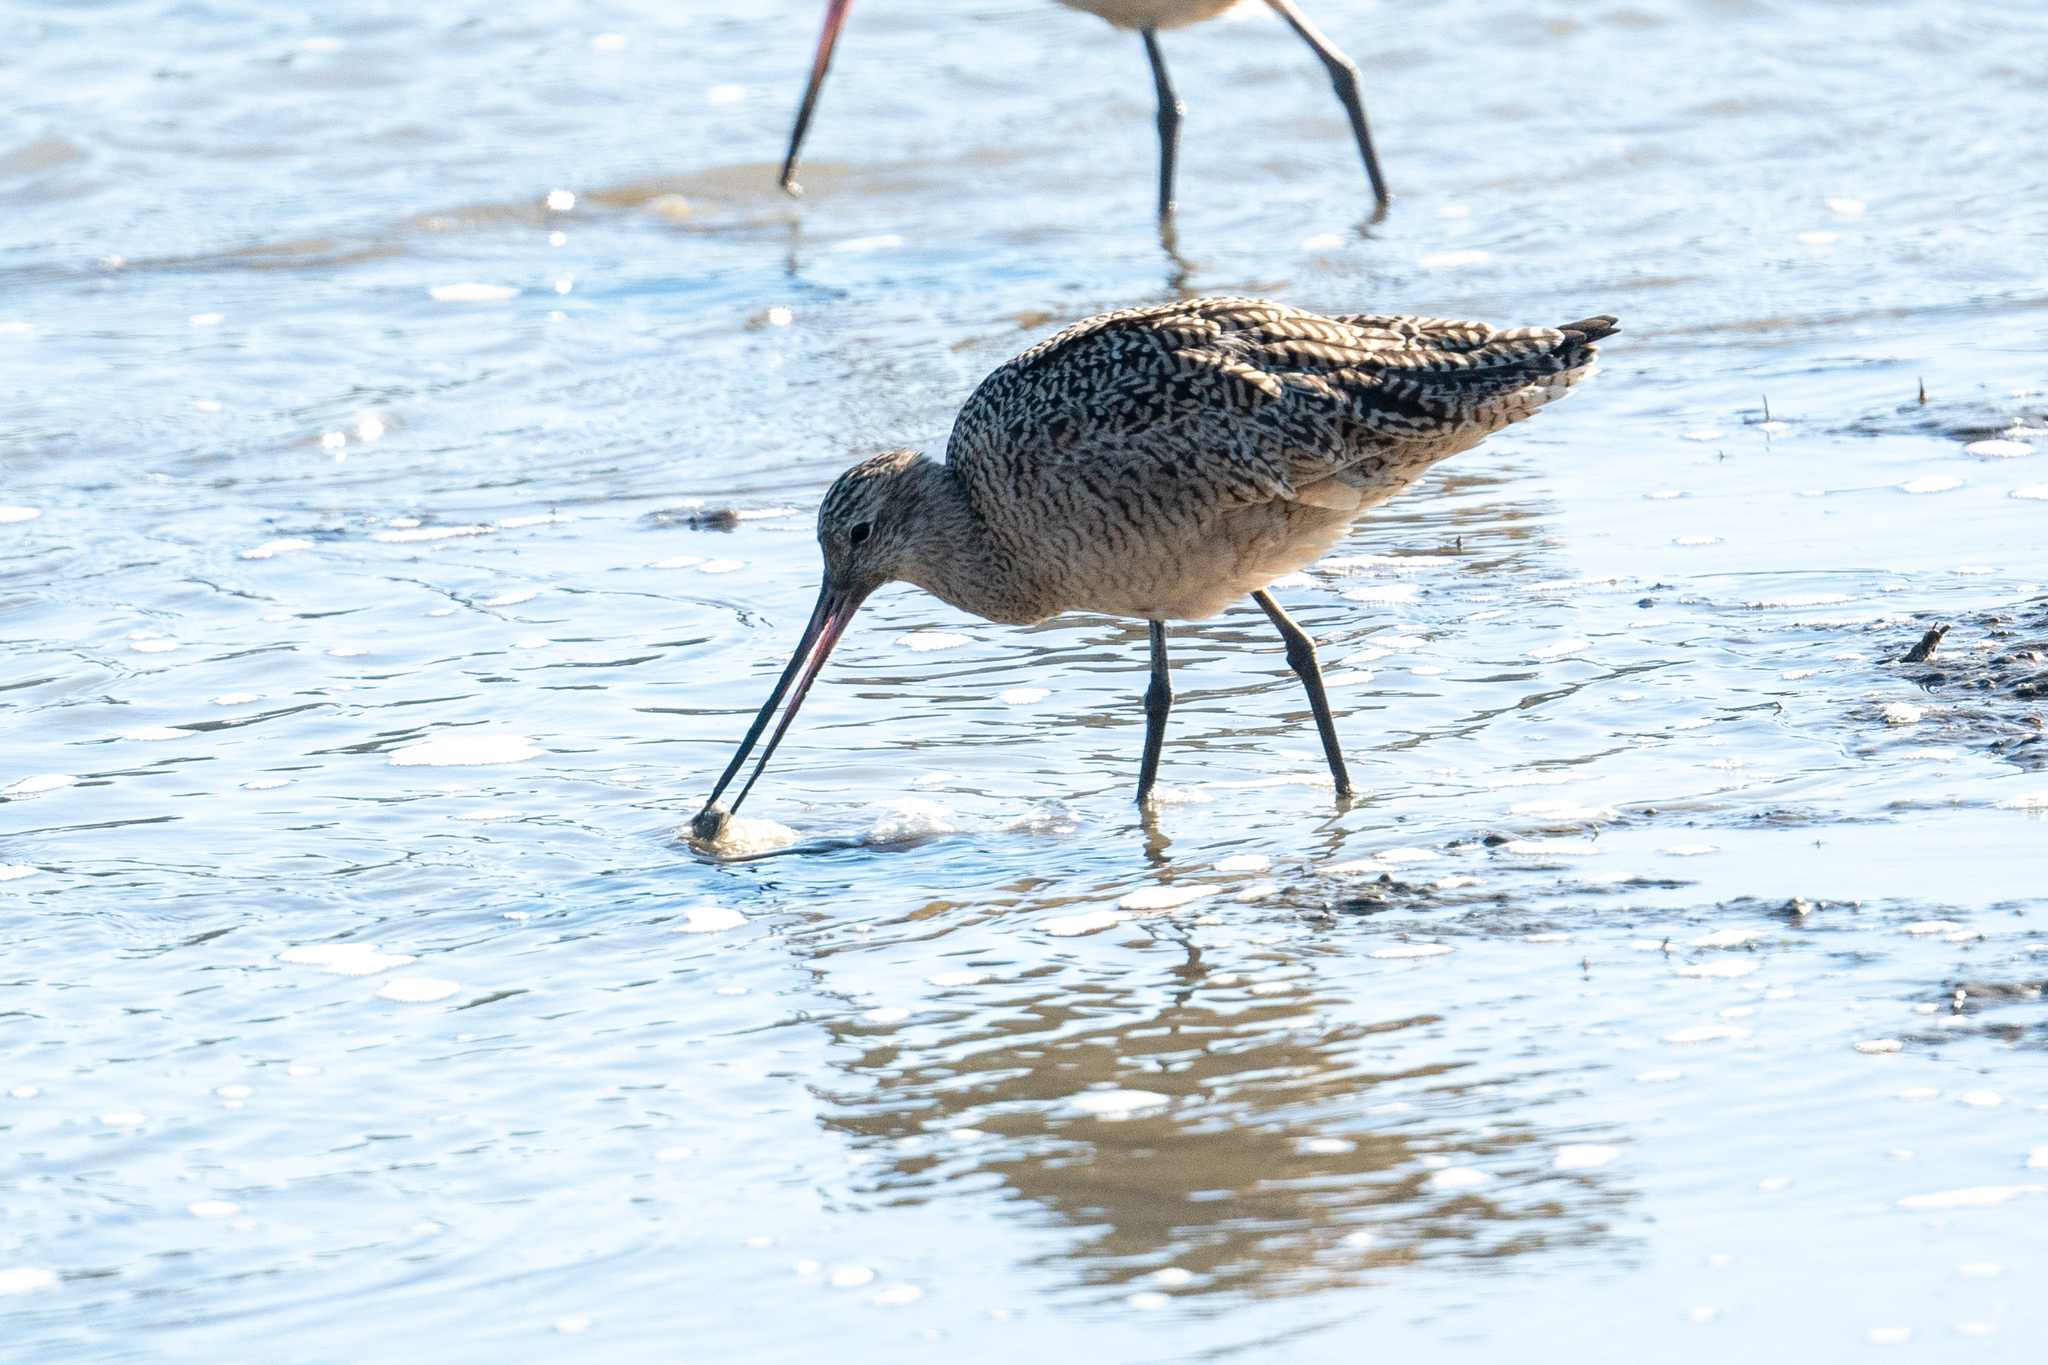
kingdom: Animalia
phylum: Chordata
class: Aves
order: Charadriiformes
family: Scolopacidae
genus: Limosa
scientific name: Limosa fedoa
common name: Marbled godwit
